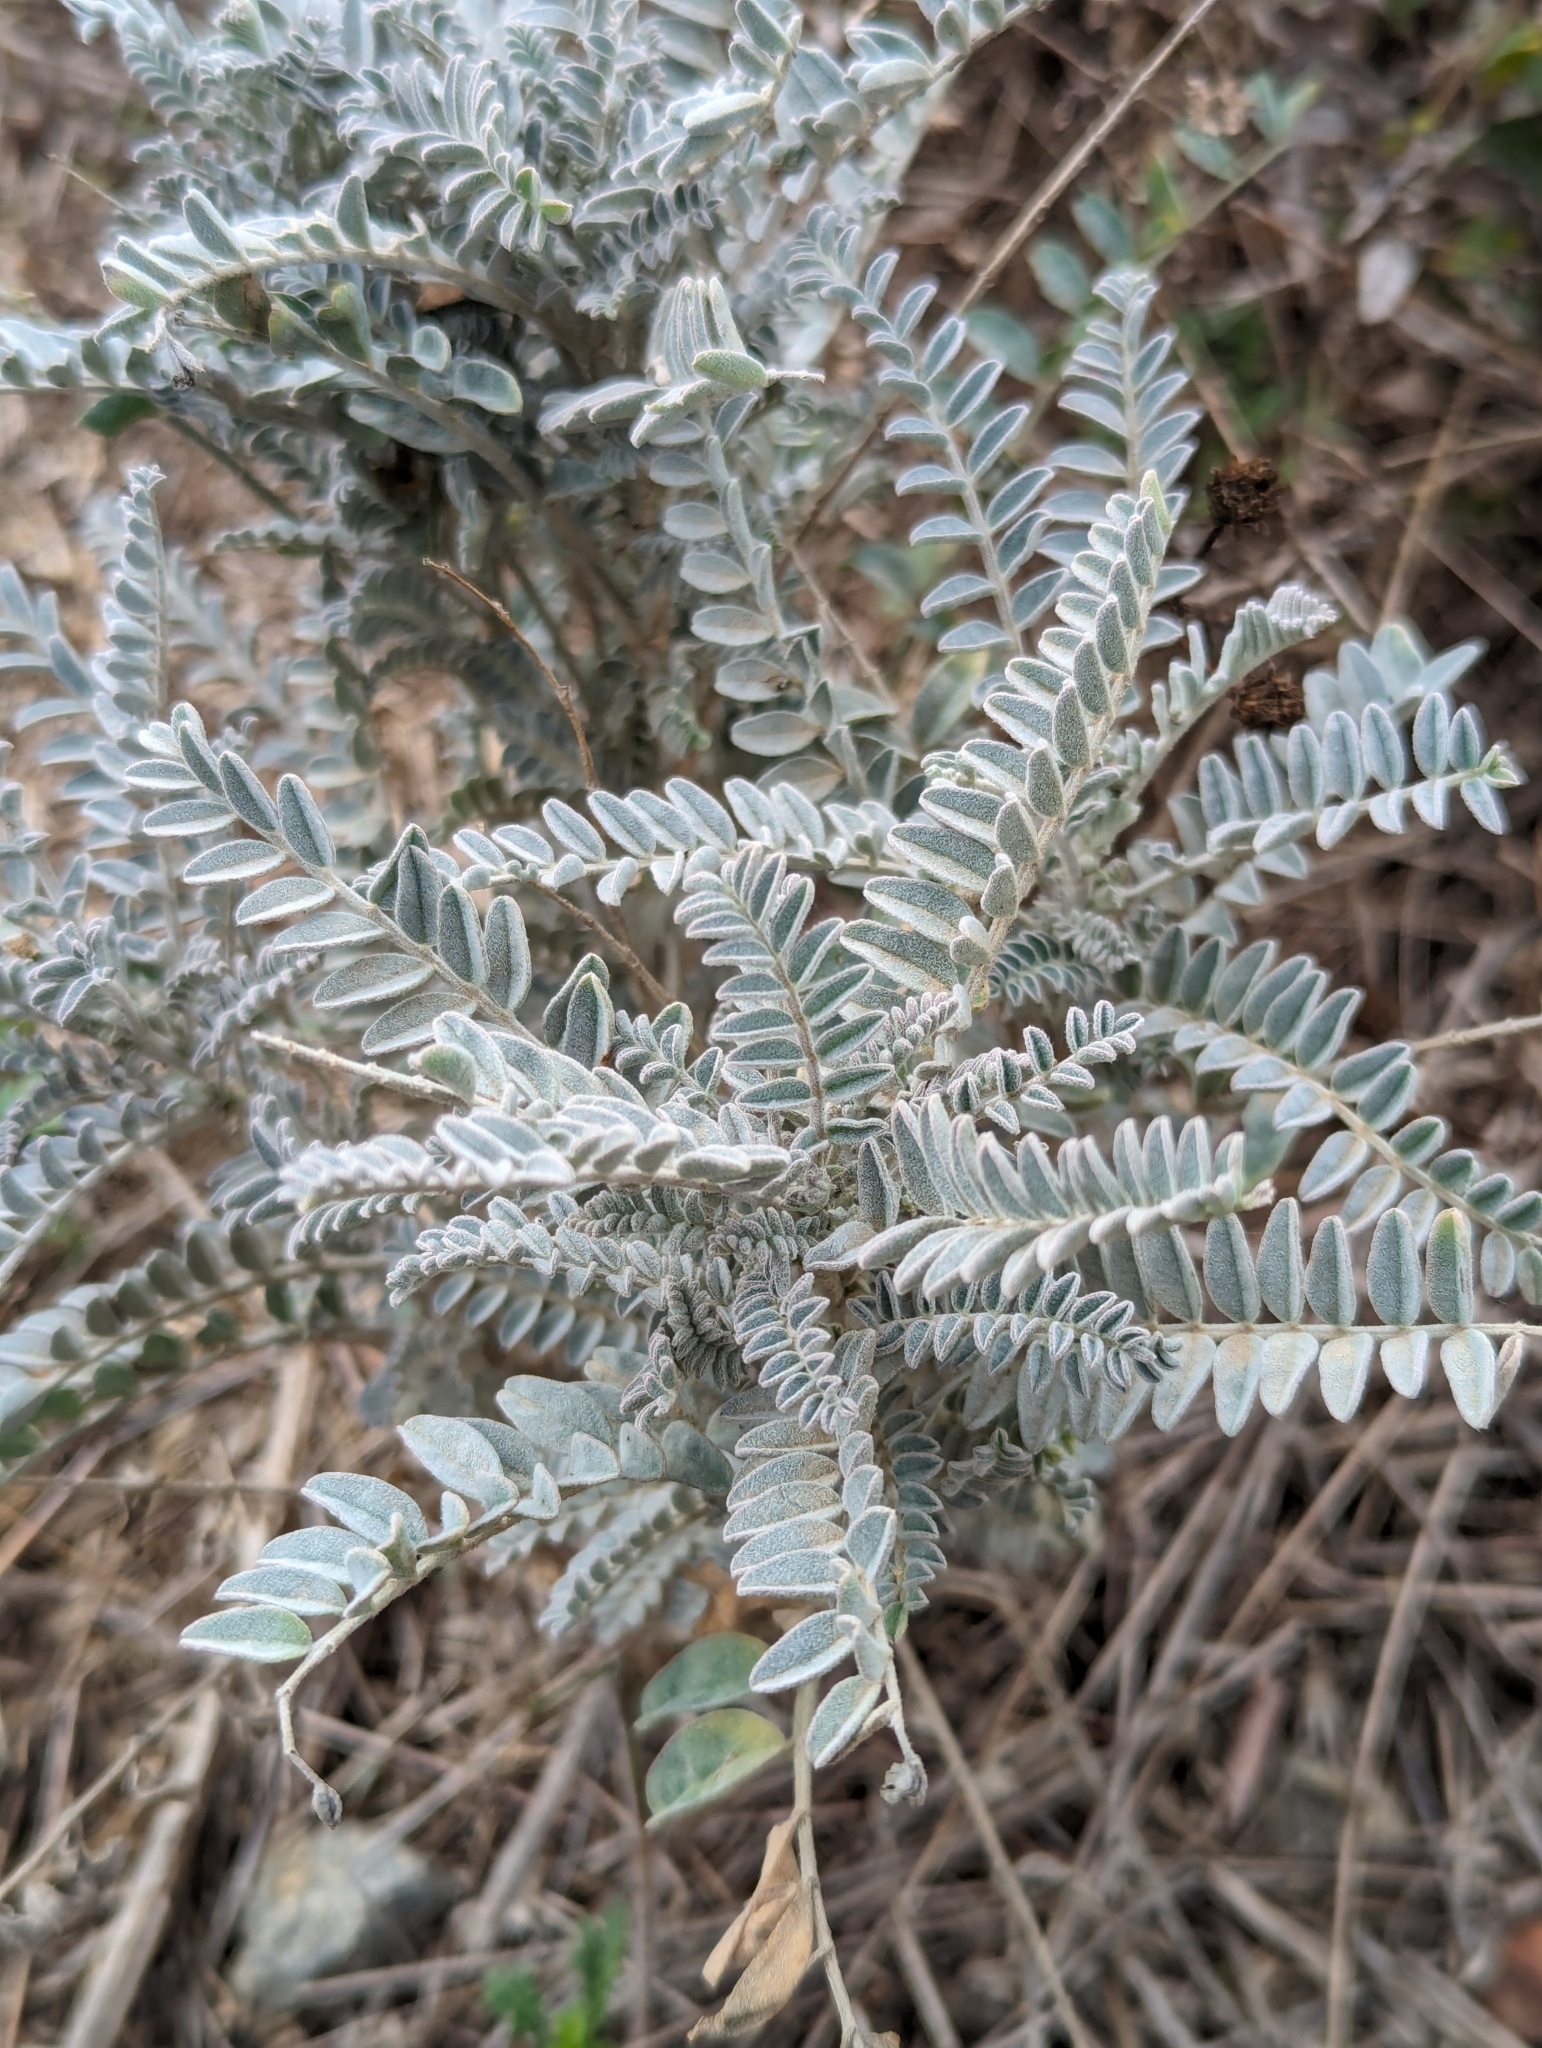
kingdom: Plantae
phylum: Tracheophyta
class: Magnoliopsida
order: Fabales
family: Fabaceae
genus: Astragalus
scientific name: Astragalus trichopodus
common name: Santa barbara milk-vetch
